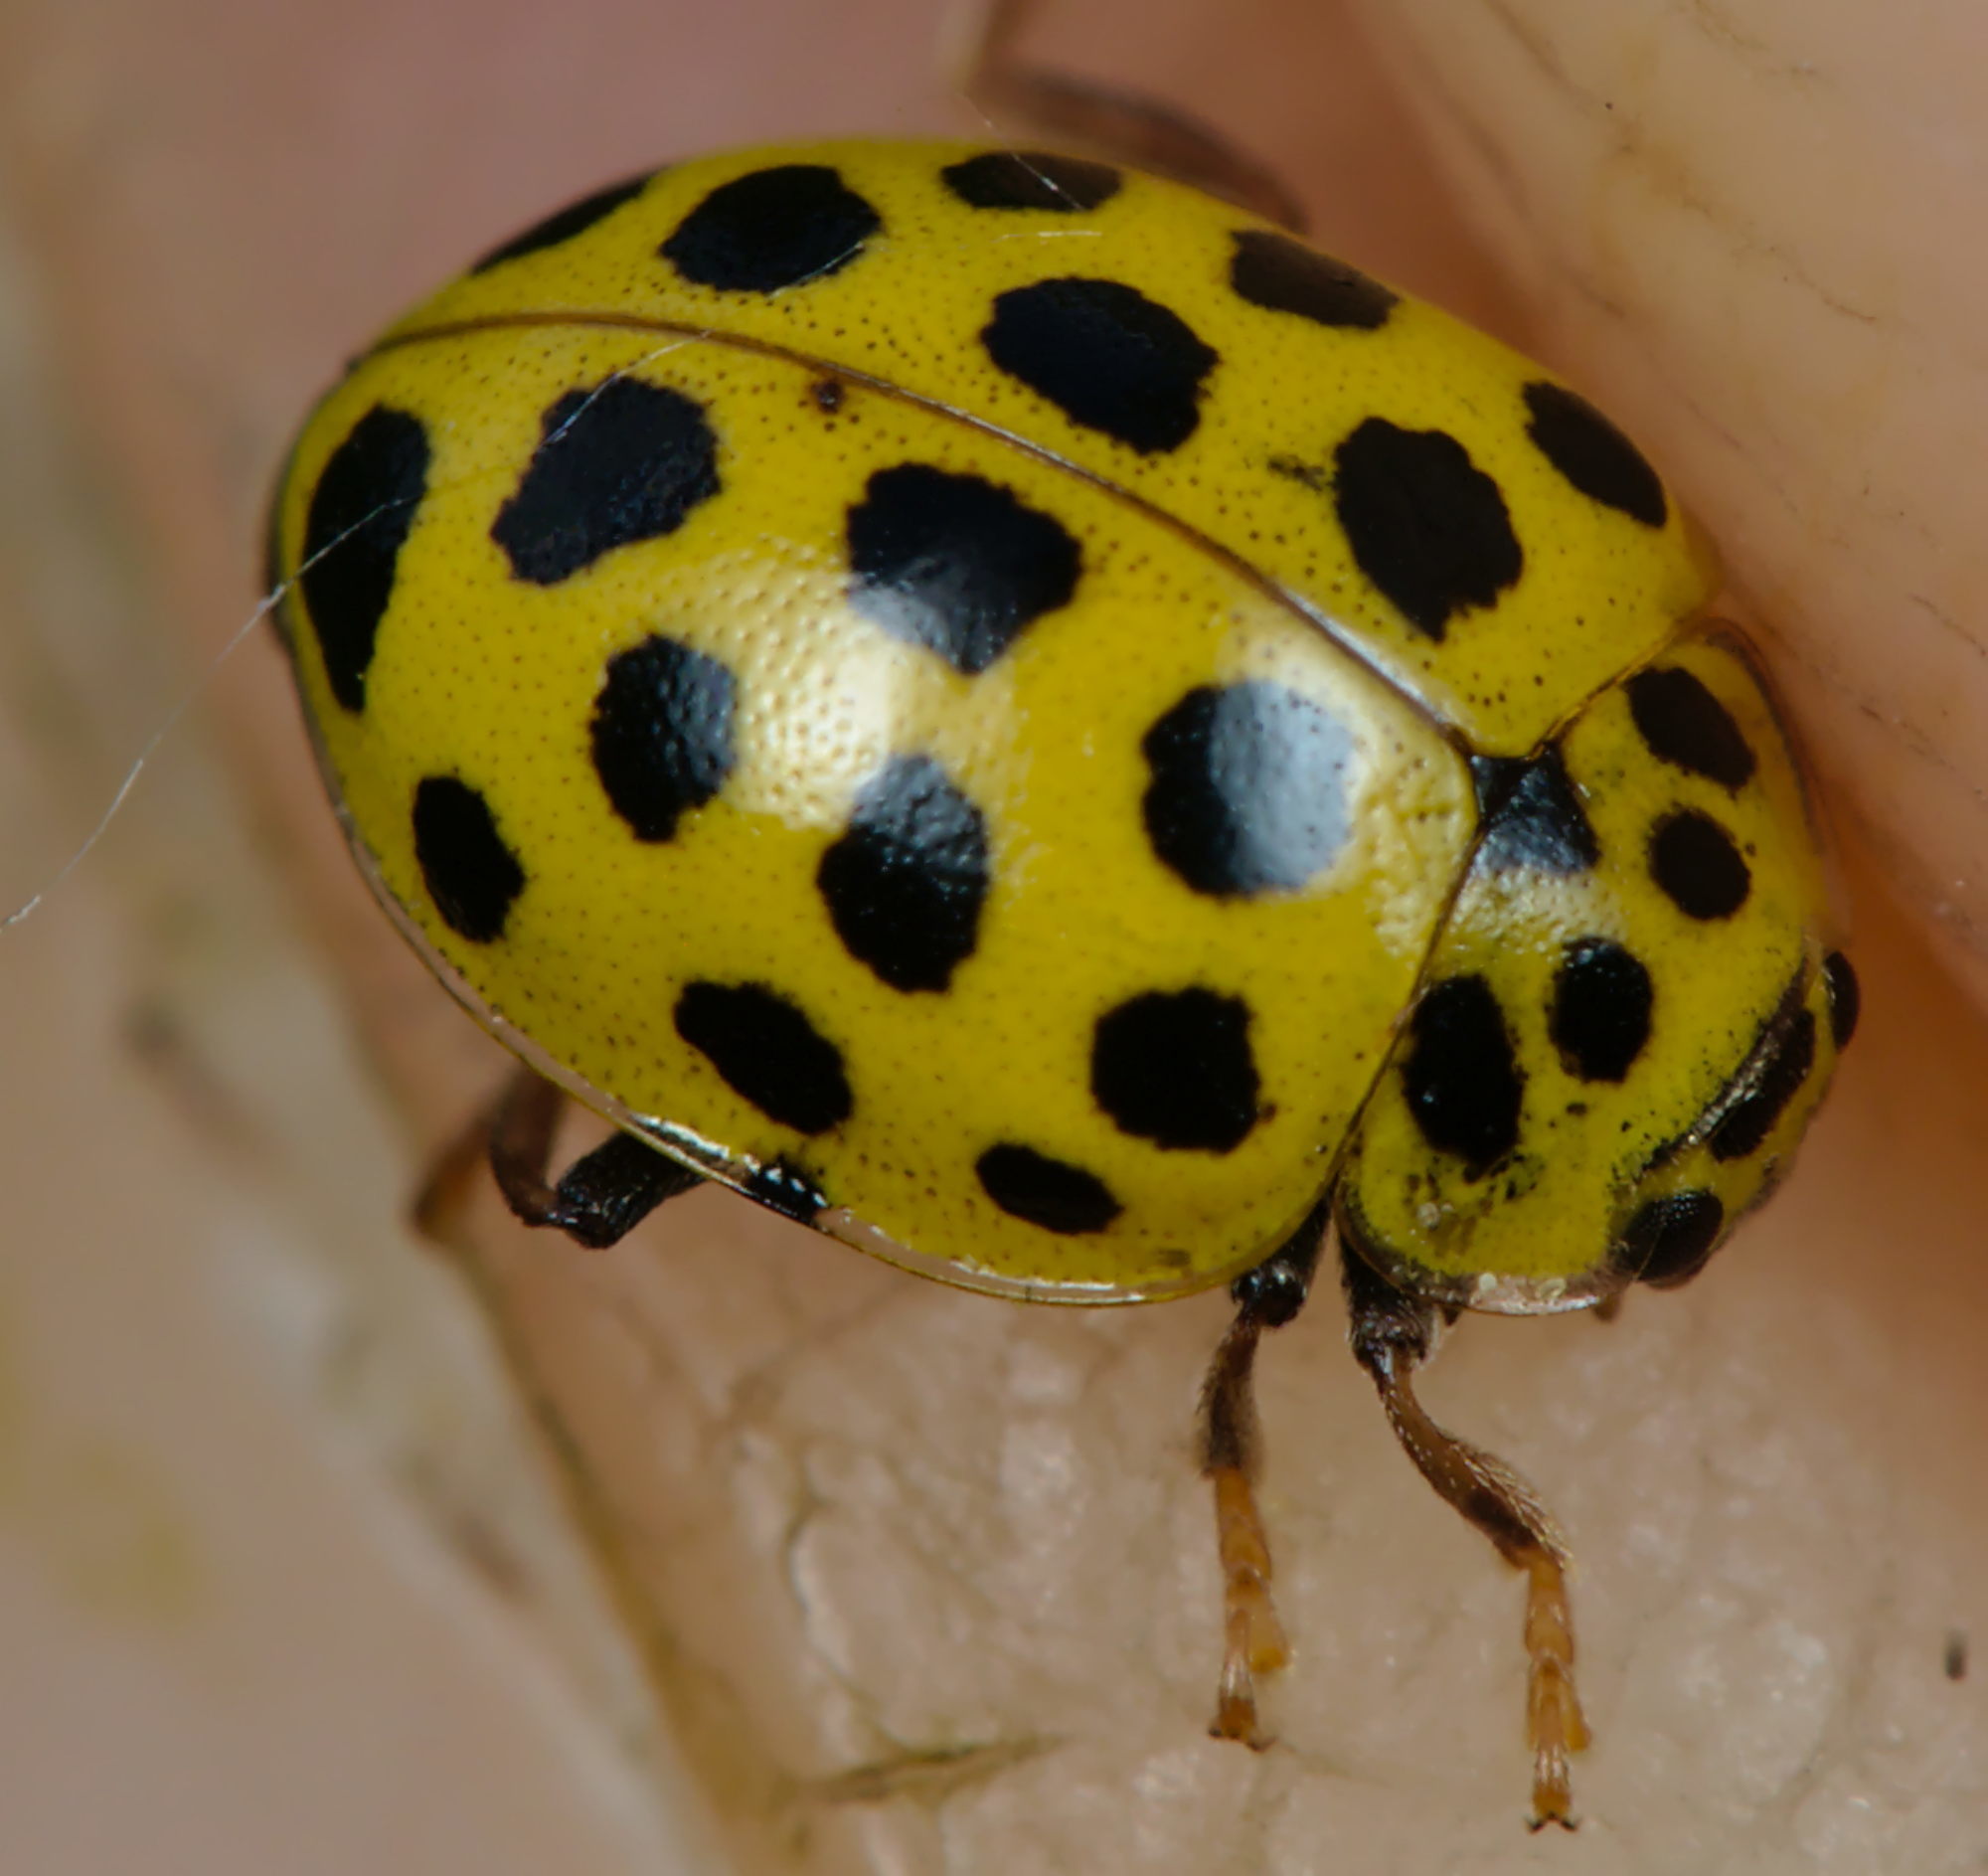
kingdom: Animalia
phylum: Arthropoda
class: Insecta
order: Coleoptera
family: Coccinellidae
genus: Psyllobora
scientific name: Psyllobora vigintiduopunctata
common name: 22-spot ladybird
